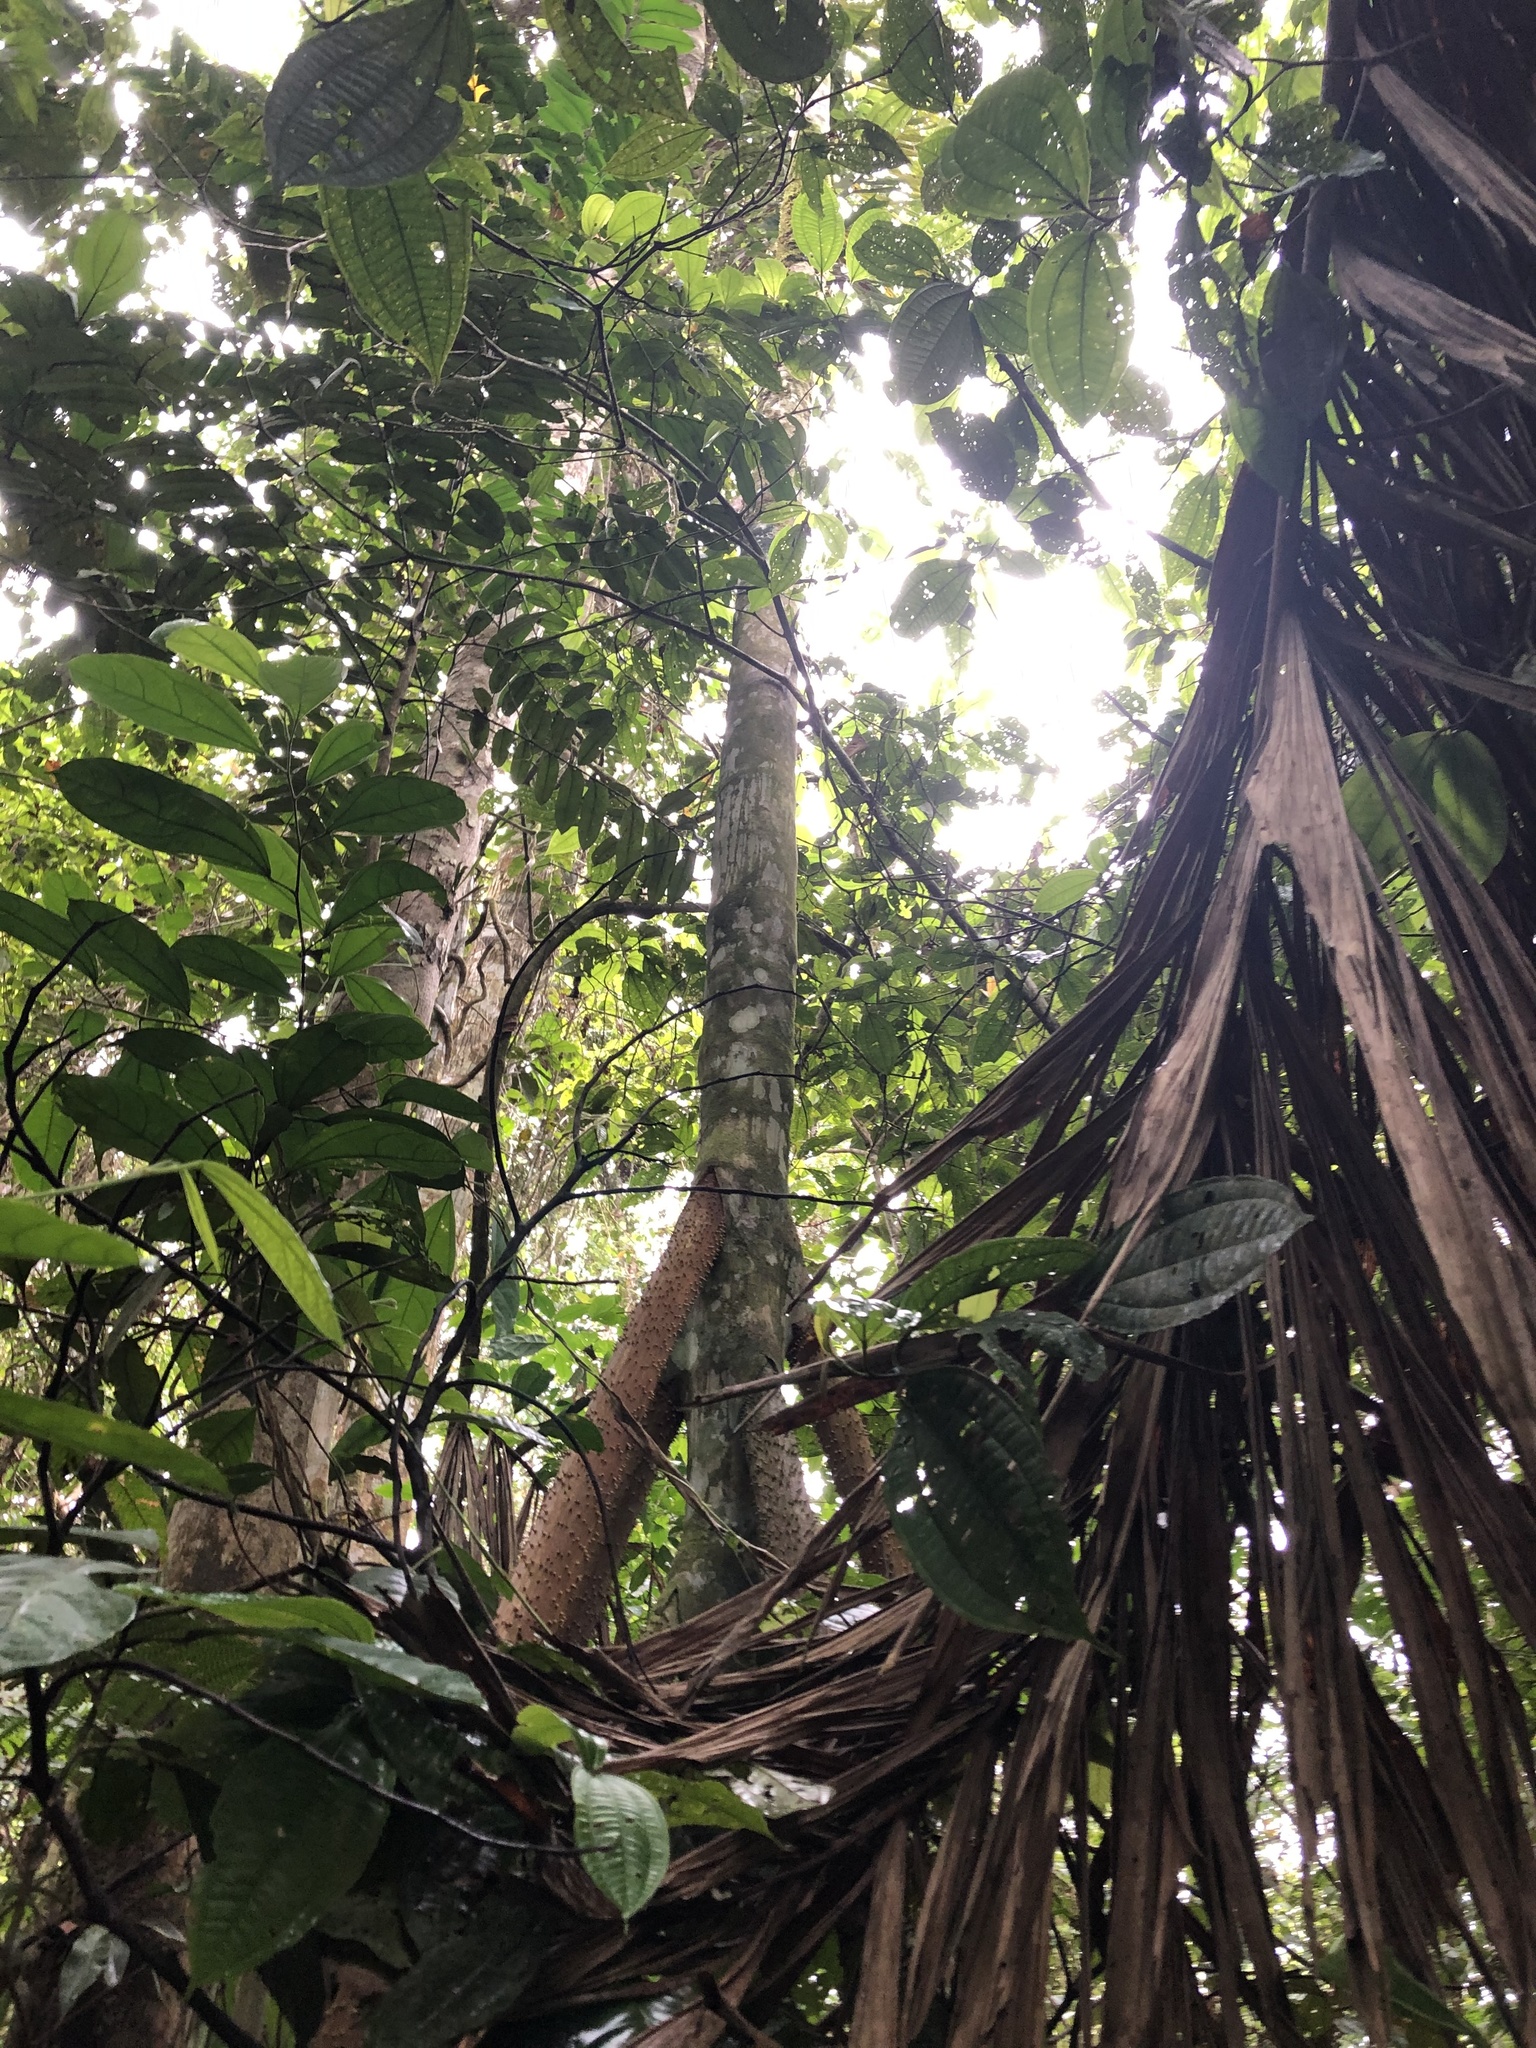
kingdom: Plantae
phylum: Tracheophyta
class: Liliopsida
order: Arecales
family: Arecaceae
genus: Socratea
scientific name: Socratea exorrhiza
